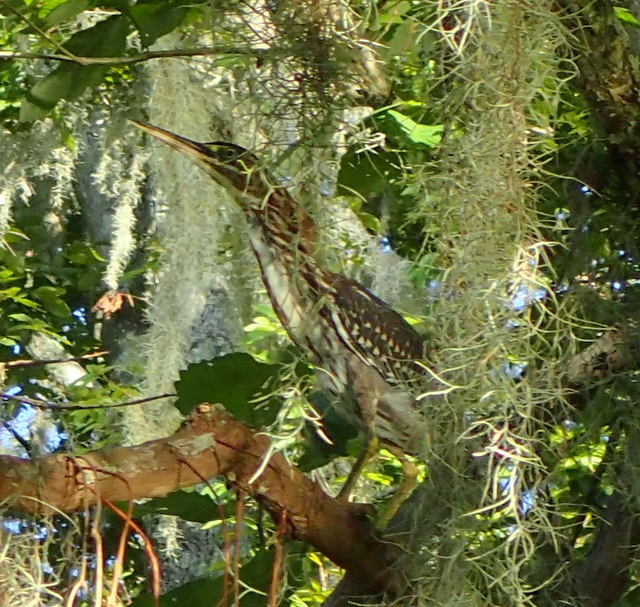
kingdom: Animalia
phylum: Chordata
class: Aves
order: Pelecaniformes
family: Ardeidae
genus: Butorides
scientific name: Butorides virescens
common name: Green heron
